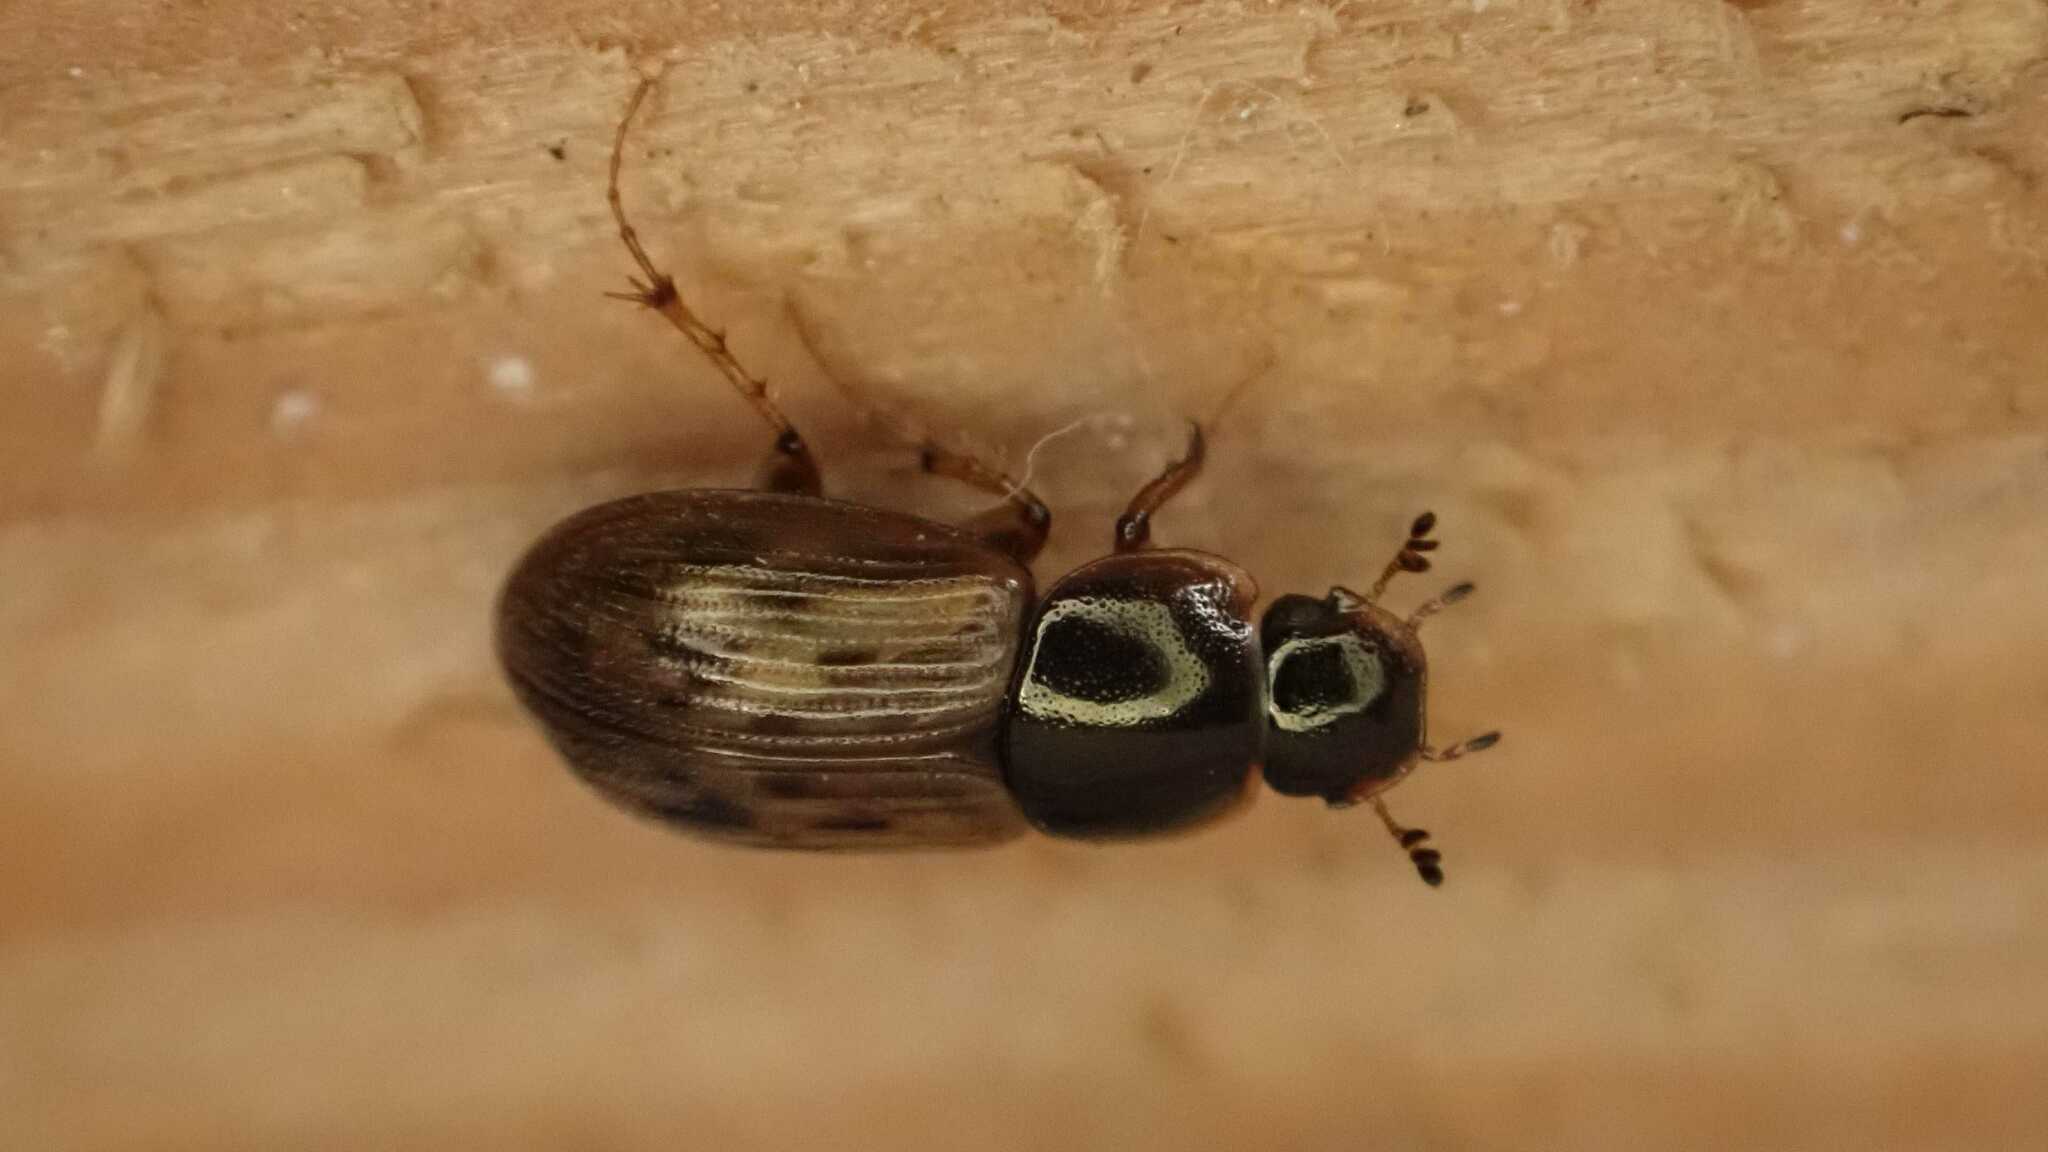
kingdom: Animalia
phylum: Arthropoda
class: Insecta
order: Coleoptera
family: Scarabaeidae
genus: Nimbus
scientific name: Nimbus contaminatus
